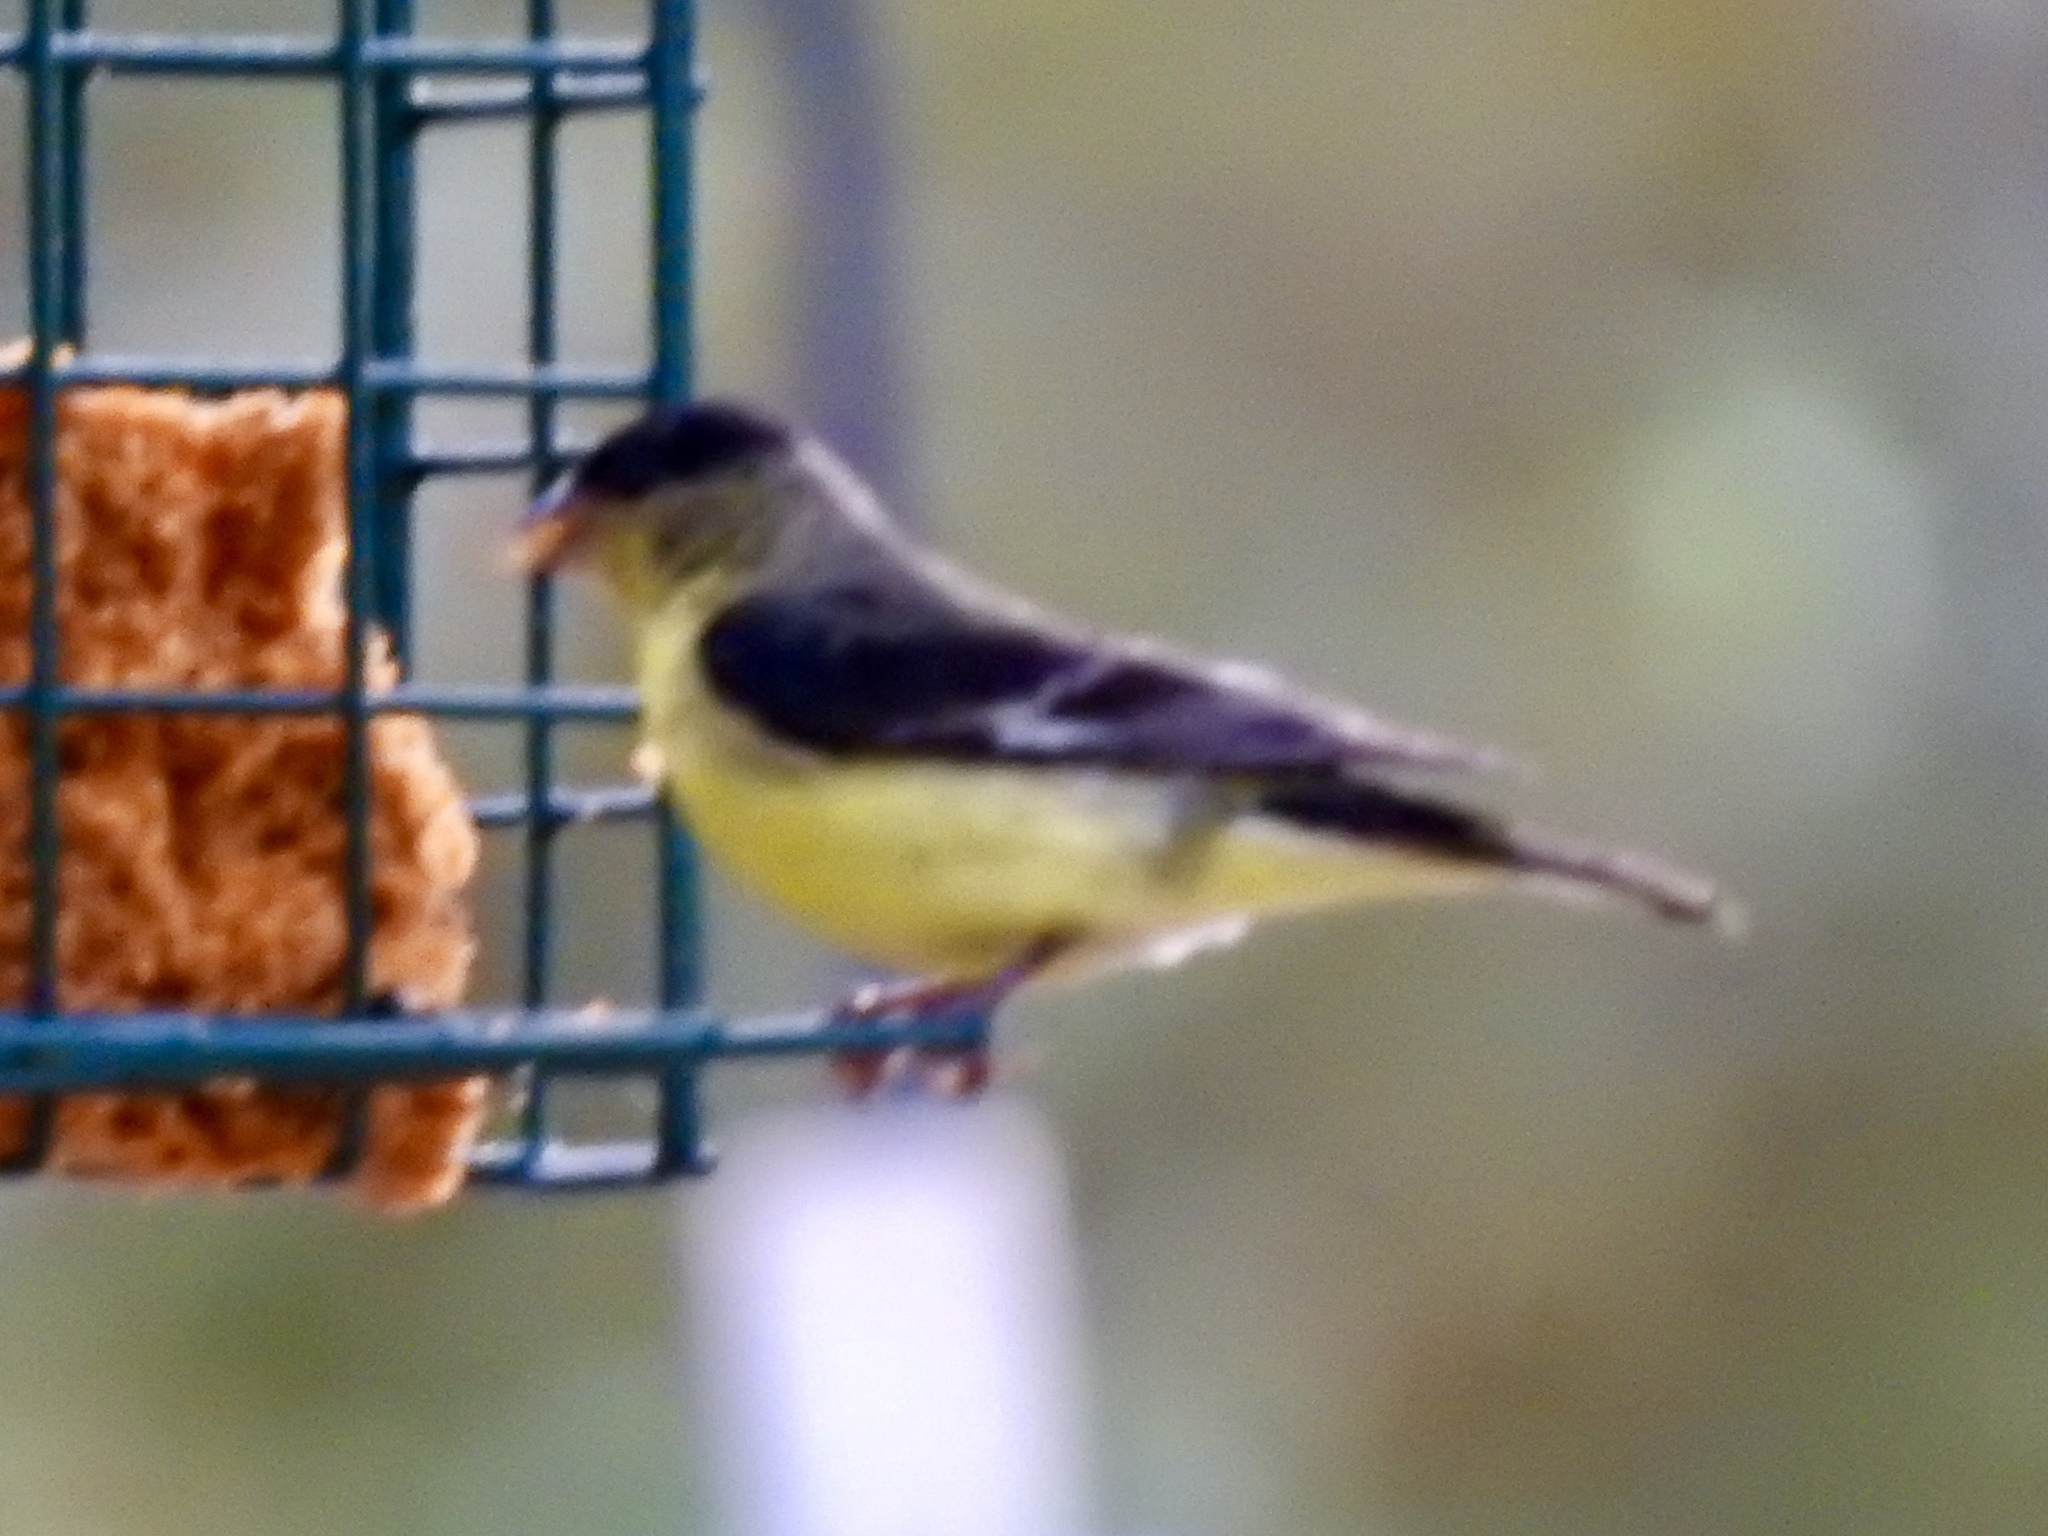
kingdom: Animalia
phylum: Chordata
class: Aves
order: Passeriformes
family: Fringillidae
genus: Spinus
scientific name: Spinus psaltria
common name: Lesser goldfinch
